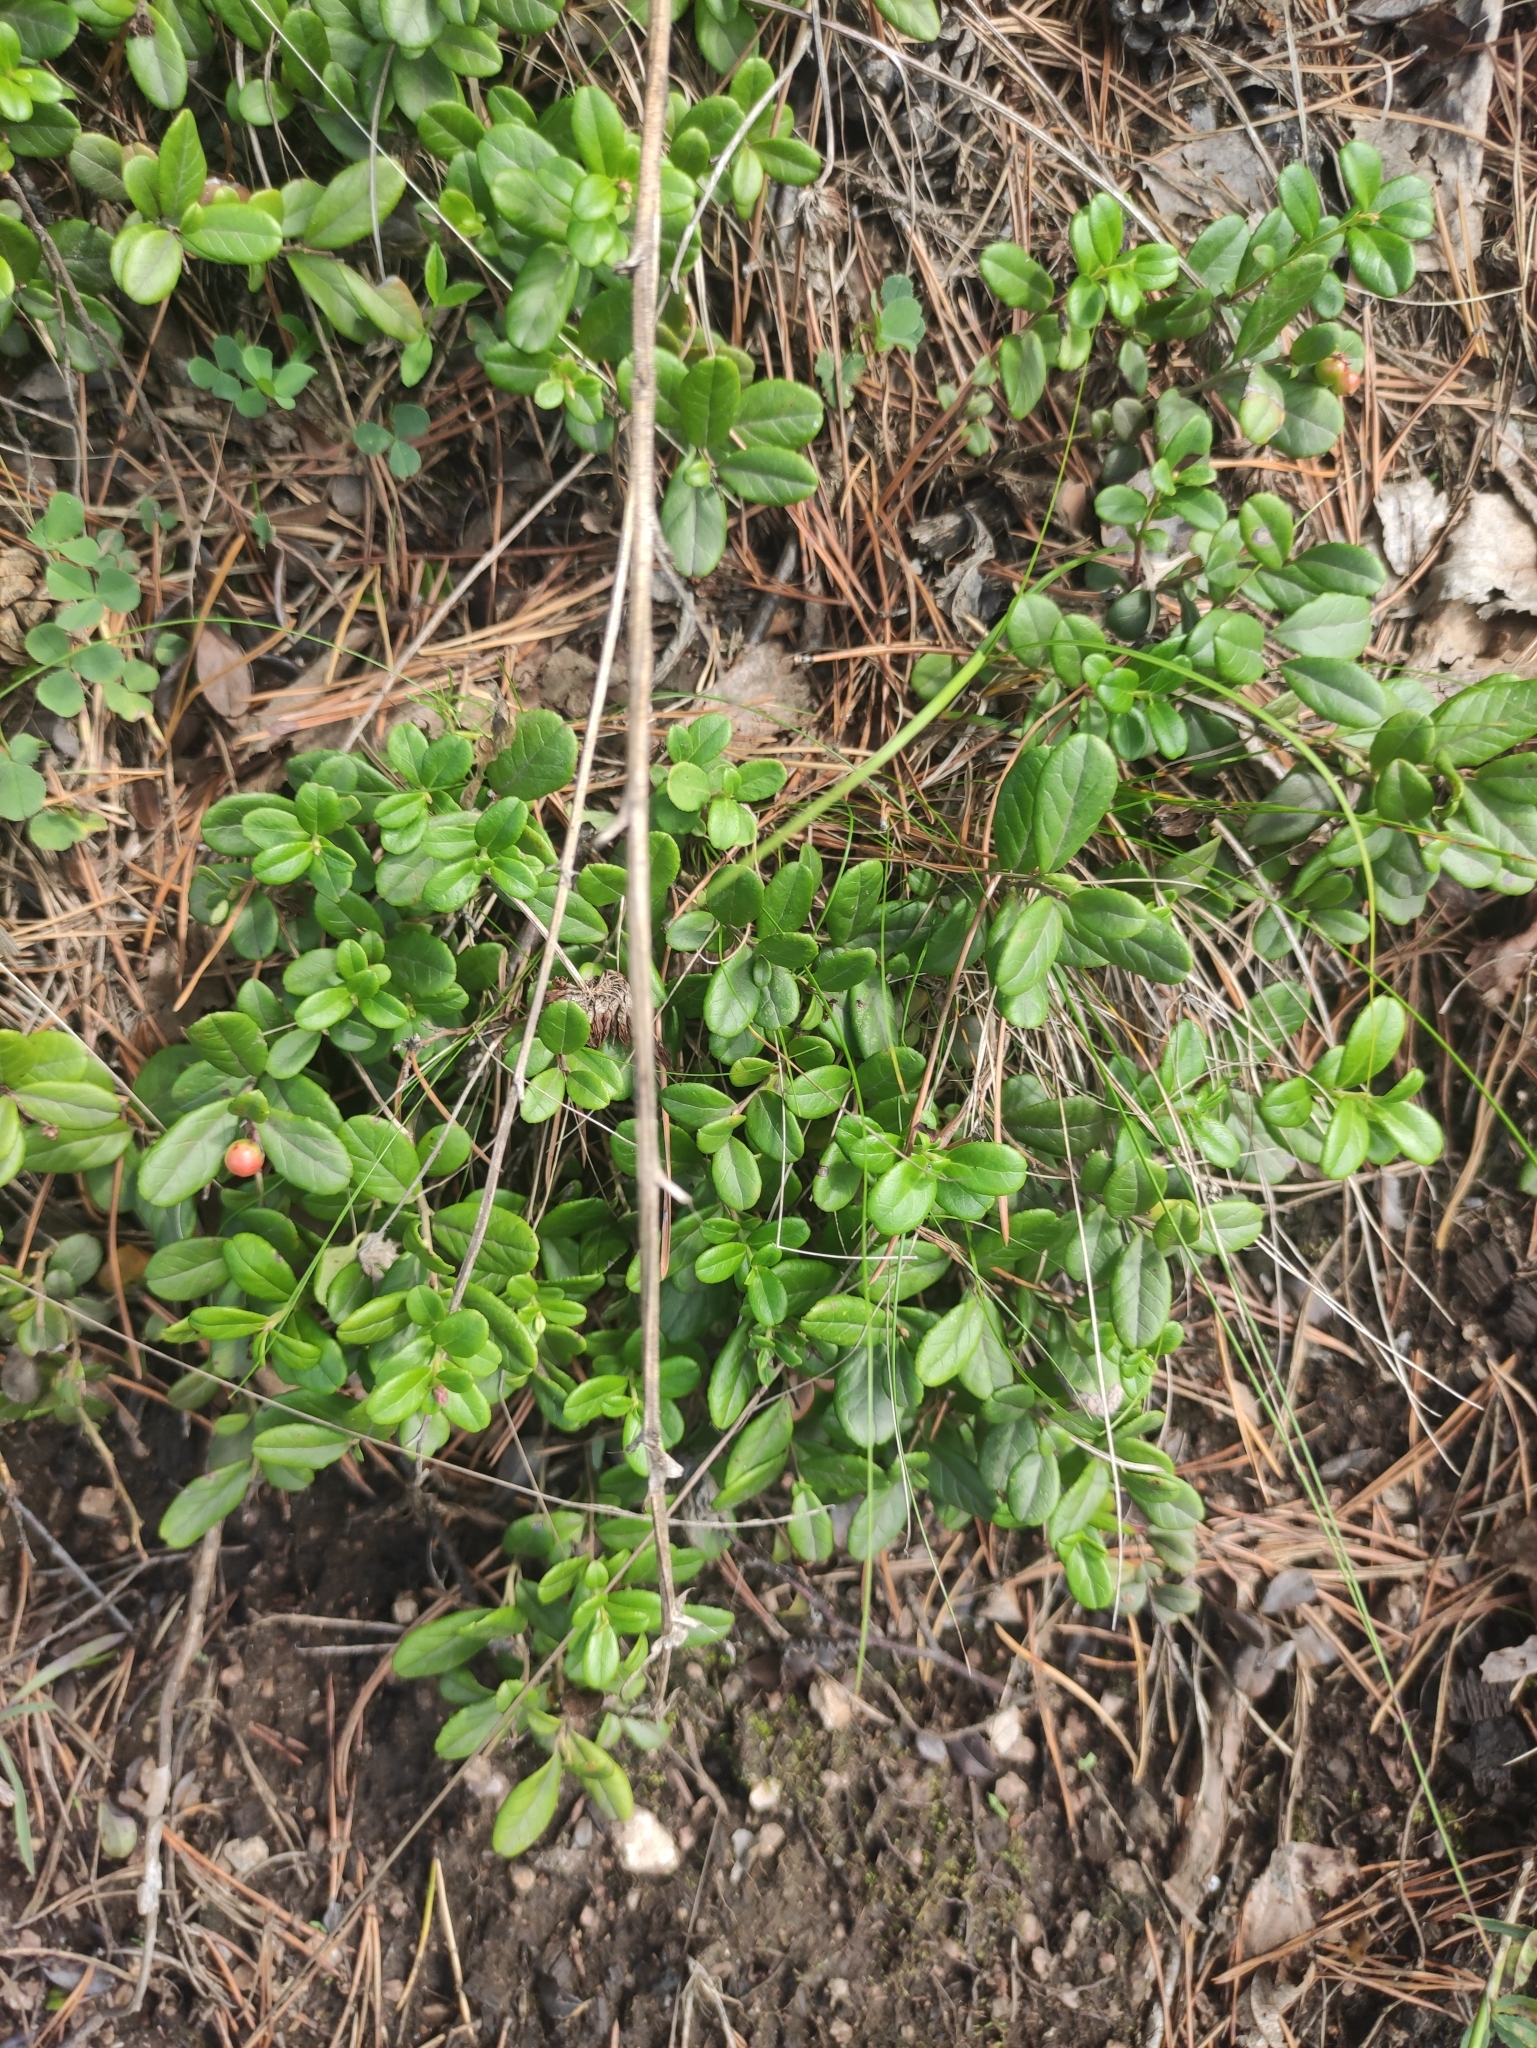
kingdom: Plantae
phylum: Tracheophyta
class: Magnoliopsida
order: Ericales
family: Ericaceae
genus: Vaccinium
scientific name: Vaccinium vitis-idaea
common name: Cowberry
